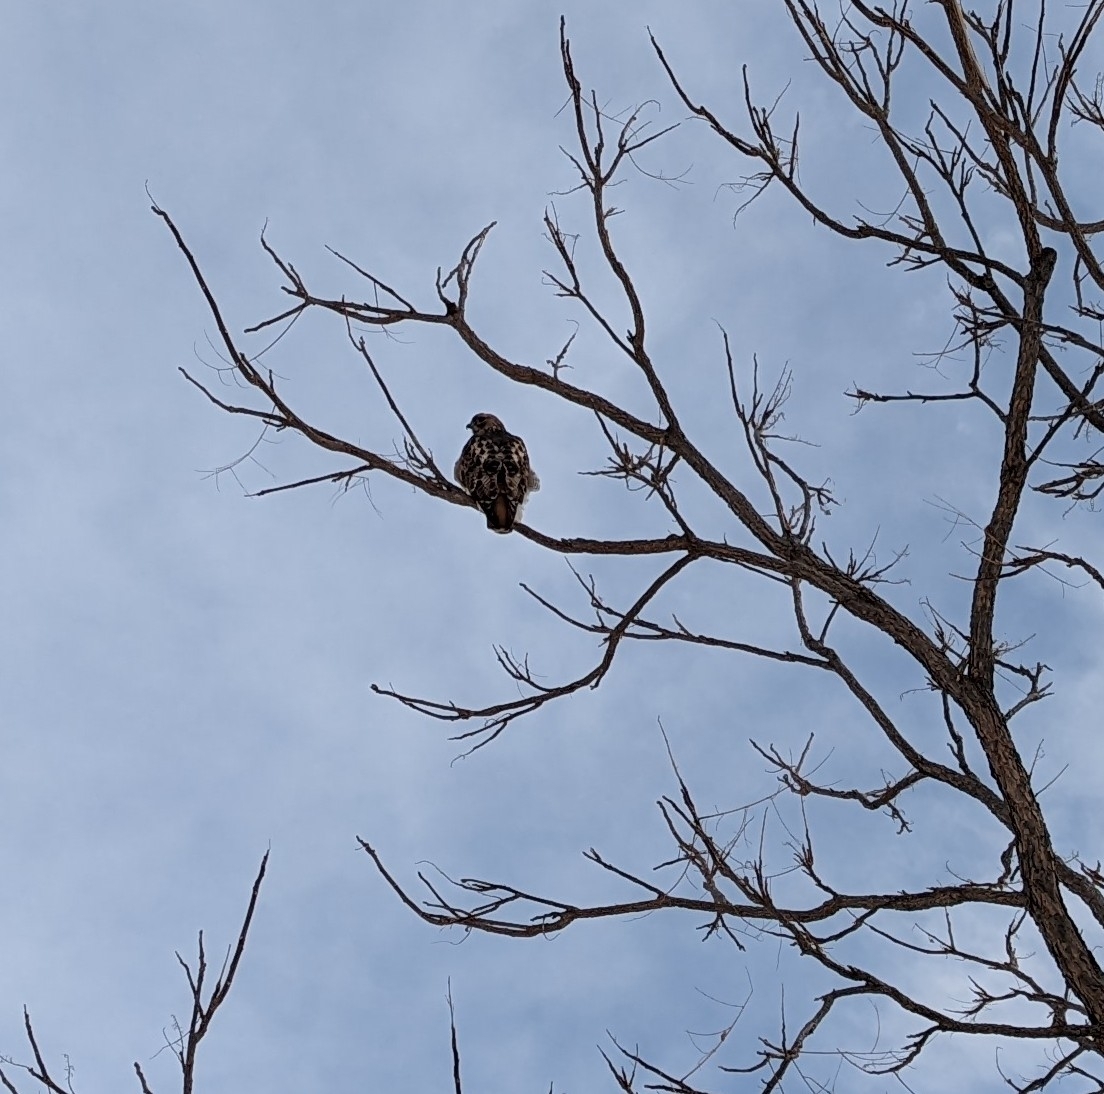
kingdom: Animalia
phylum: Chordata
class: Aves
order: Accipitriformes
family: Accipitridae
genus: Buteo
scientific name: Buteo jamaicensis
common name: Red-tailed hawk
